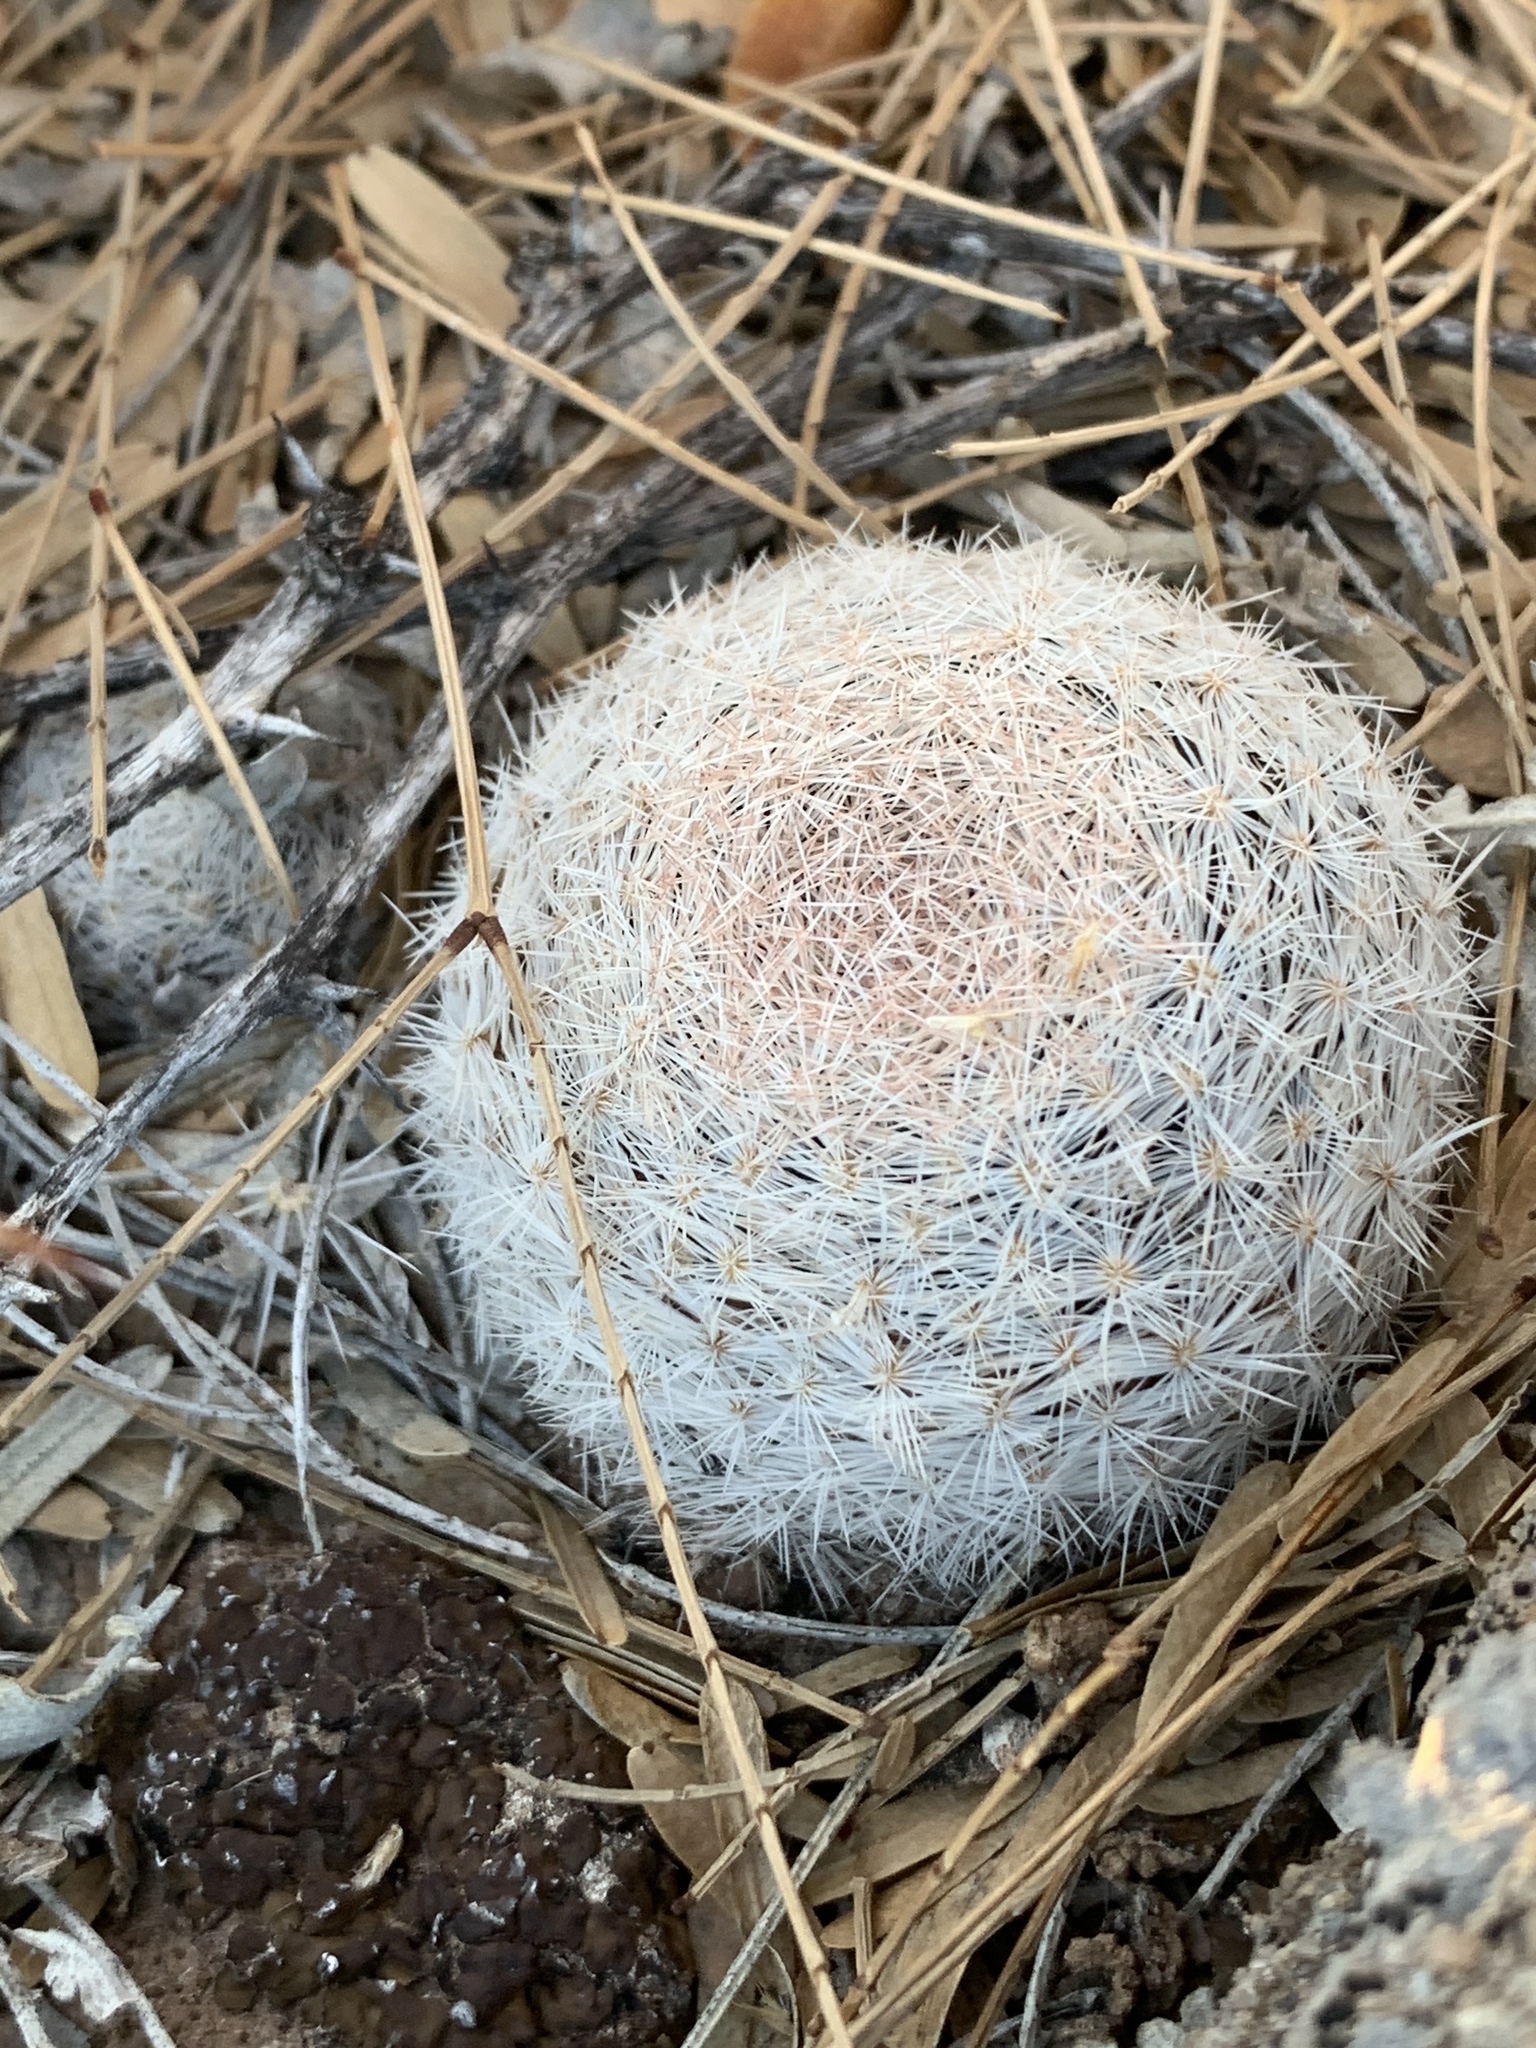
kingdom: Plantae
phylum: Tracheophyta
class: Magnoliopsida
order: Caryophyllales
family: Cactaceae
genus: Mammillaria
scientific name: Mammillaria lasiacantha
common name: Lace-spine nipple cactus
